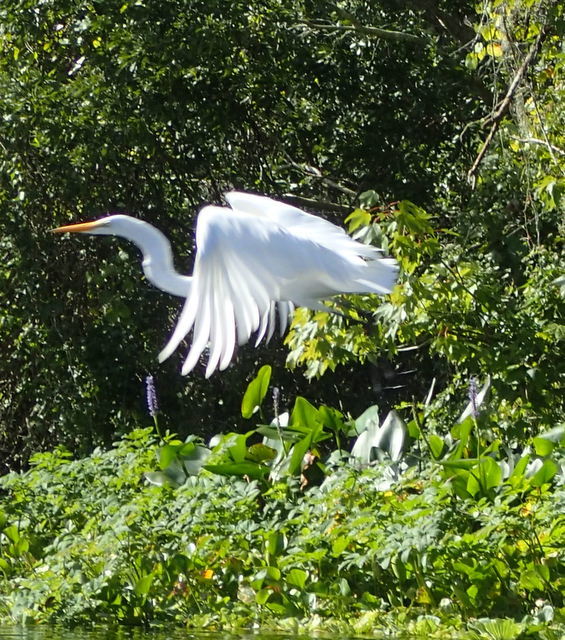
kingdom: Animalia
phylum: Chordata
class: Aves
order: Pelecaniformes
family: Ardeidae
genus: Ardea
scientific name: Ardea alba
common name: Great egret
